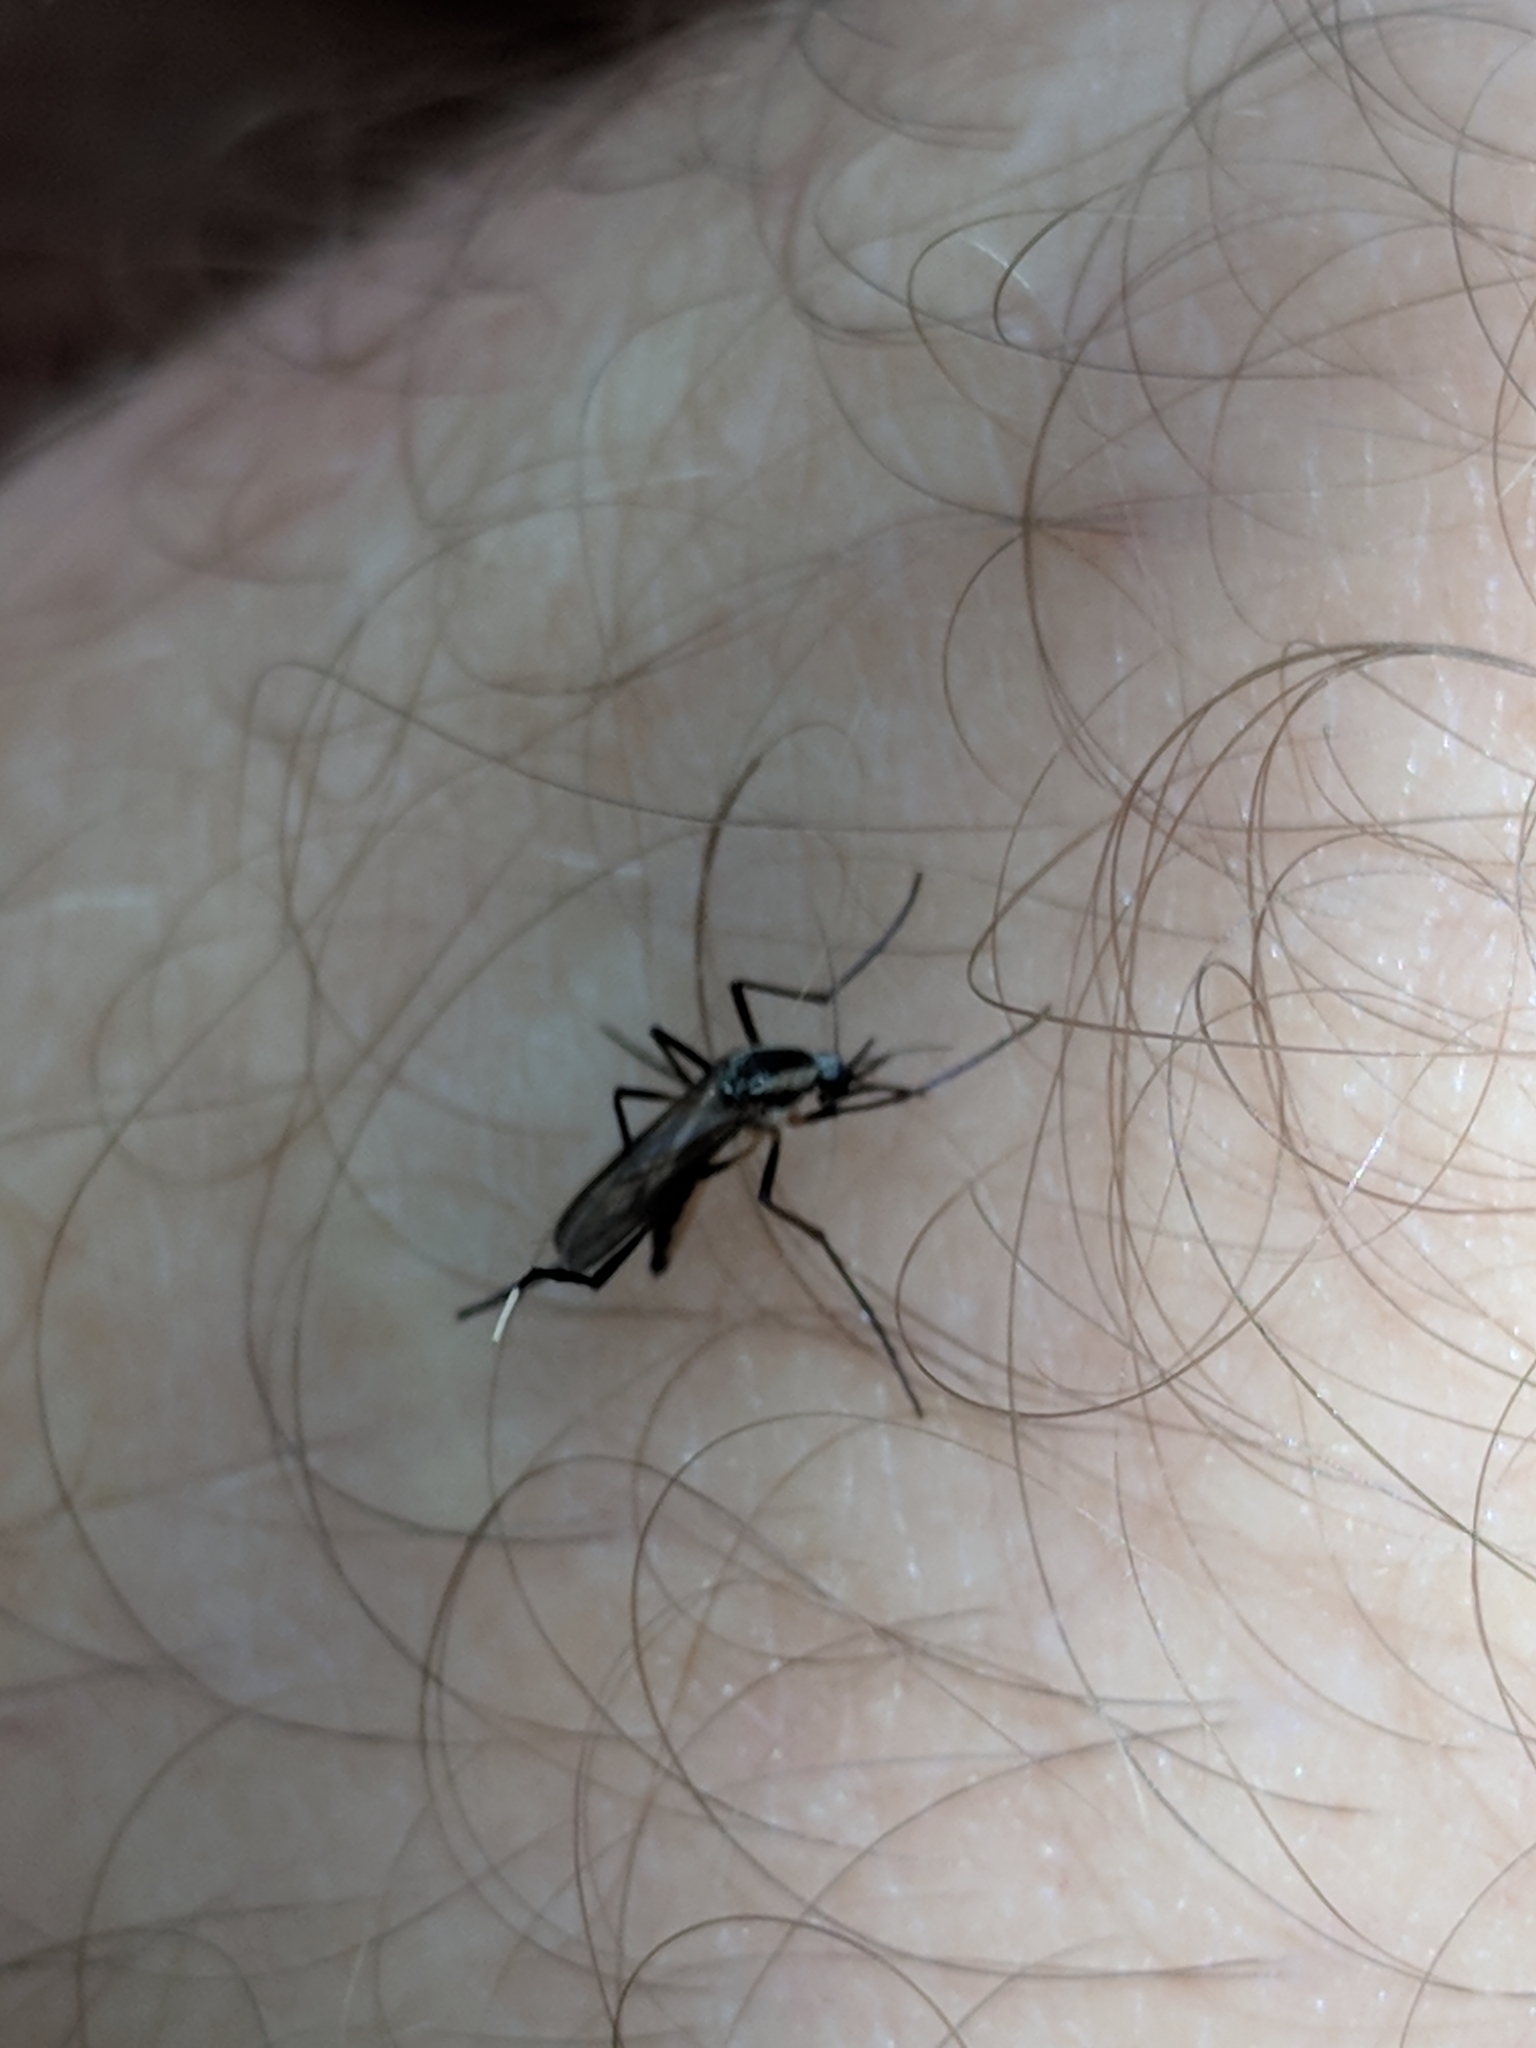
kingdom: Animalia
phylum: Arthropoda
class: Insecta
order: Diptera
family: Culicidae
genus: Psorophora
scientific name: Psorophora longipalpus
